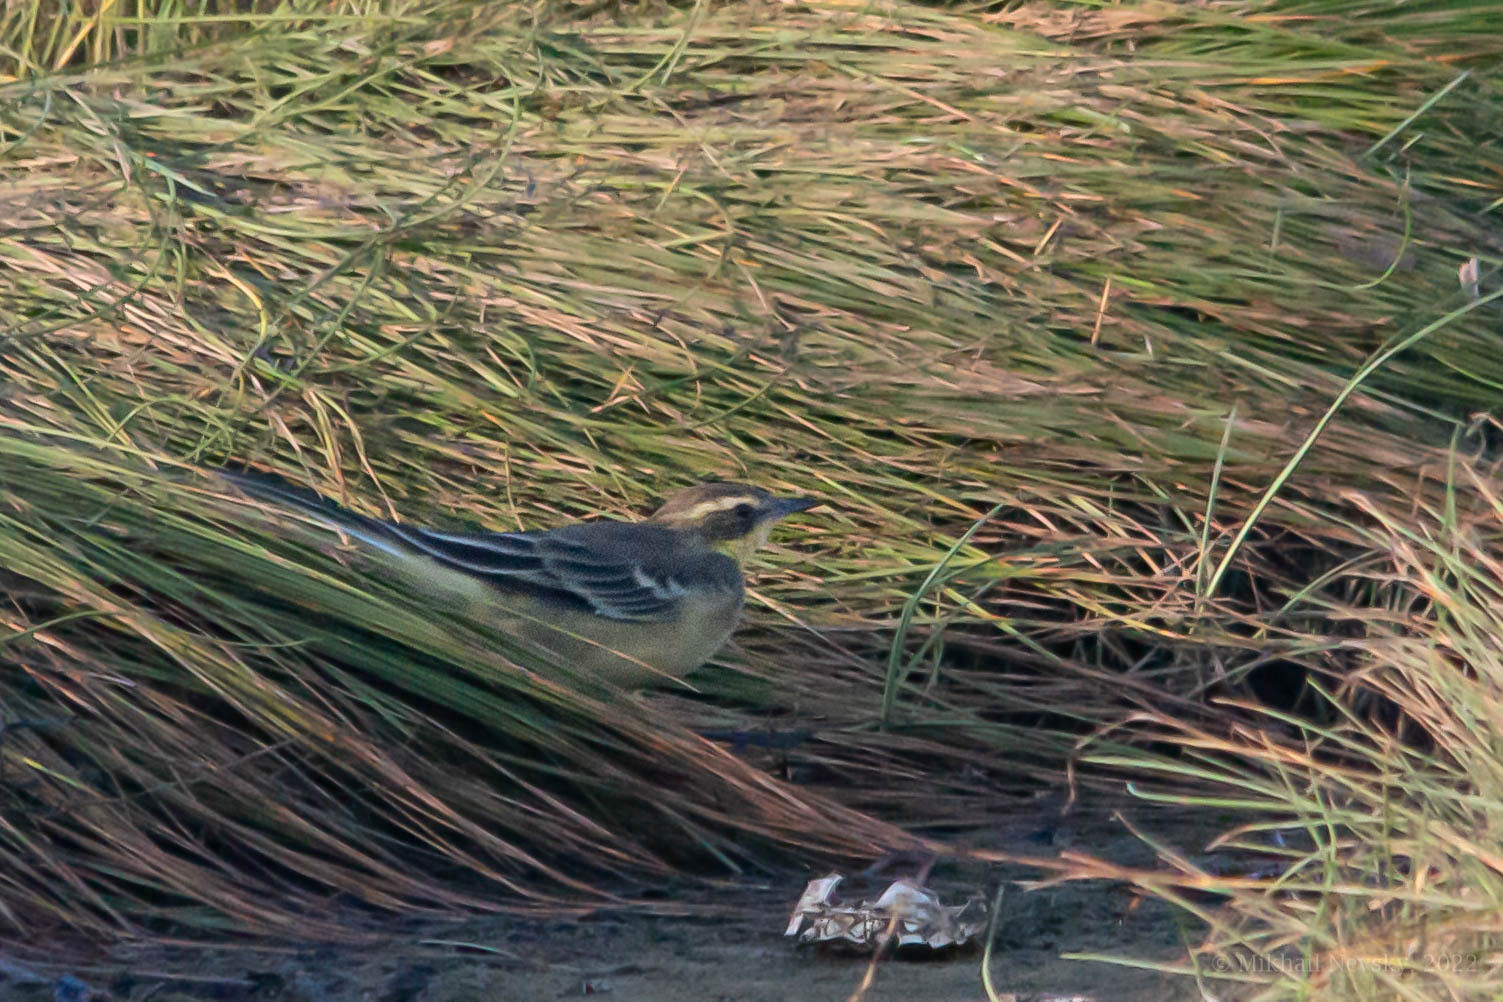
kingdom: Animalia
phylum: Chordata
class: Aves
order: Passeriformes
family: Motacillidae
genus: Motacilla
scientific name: Motacilla tschutschensis
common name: Eastern yellow wagtail
